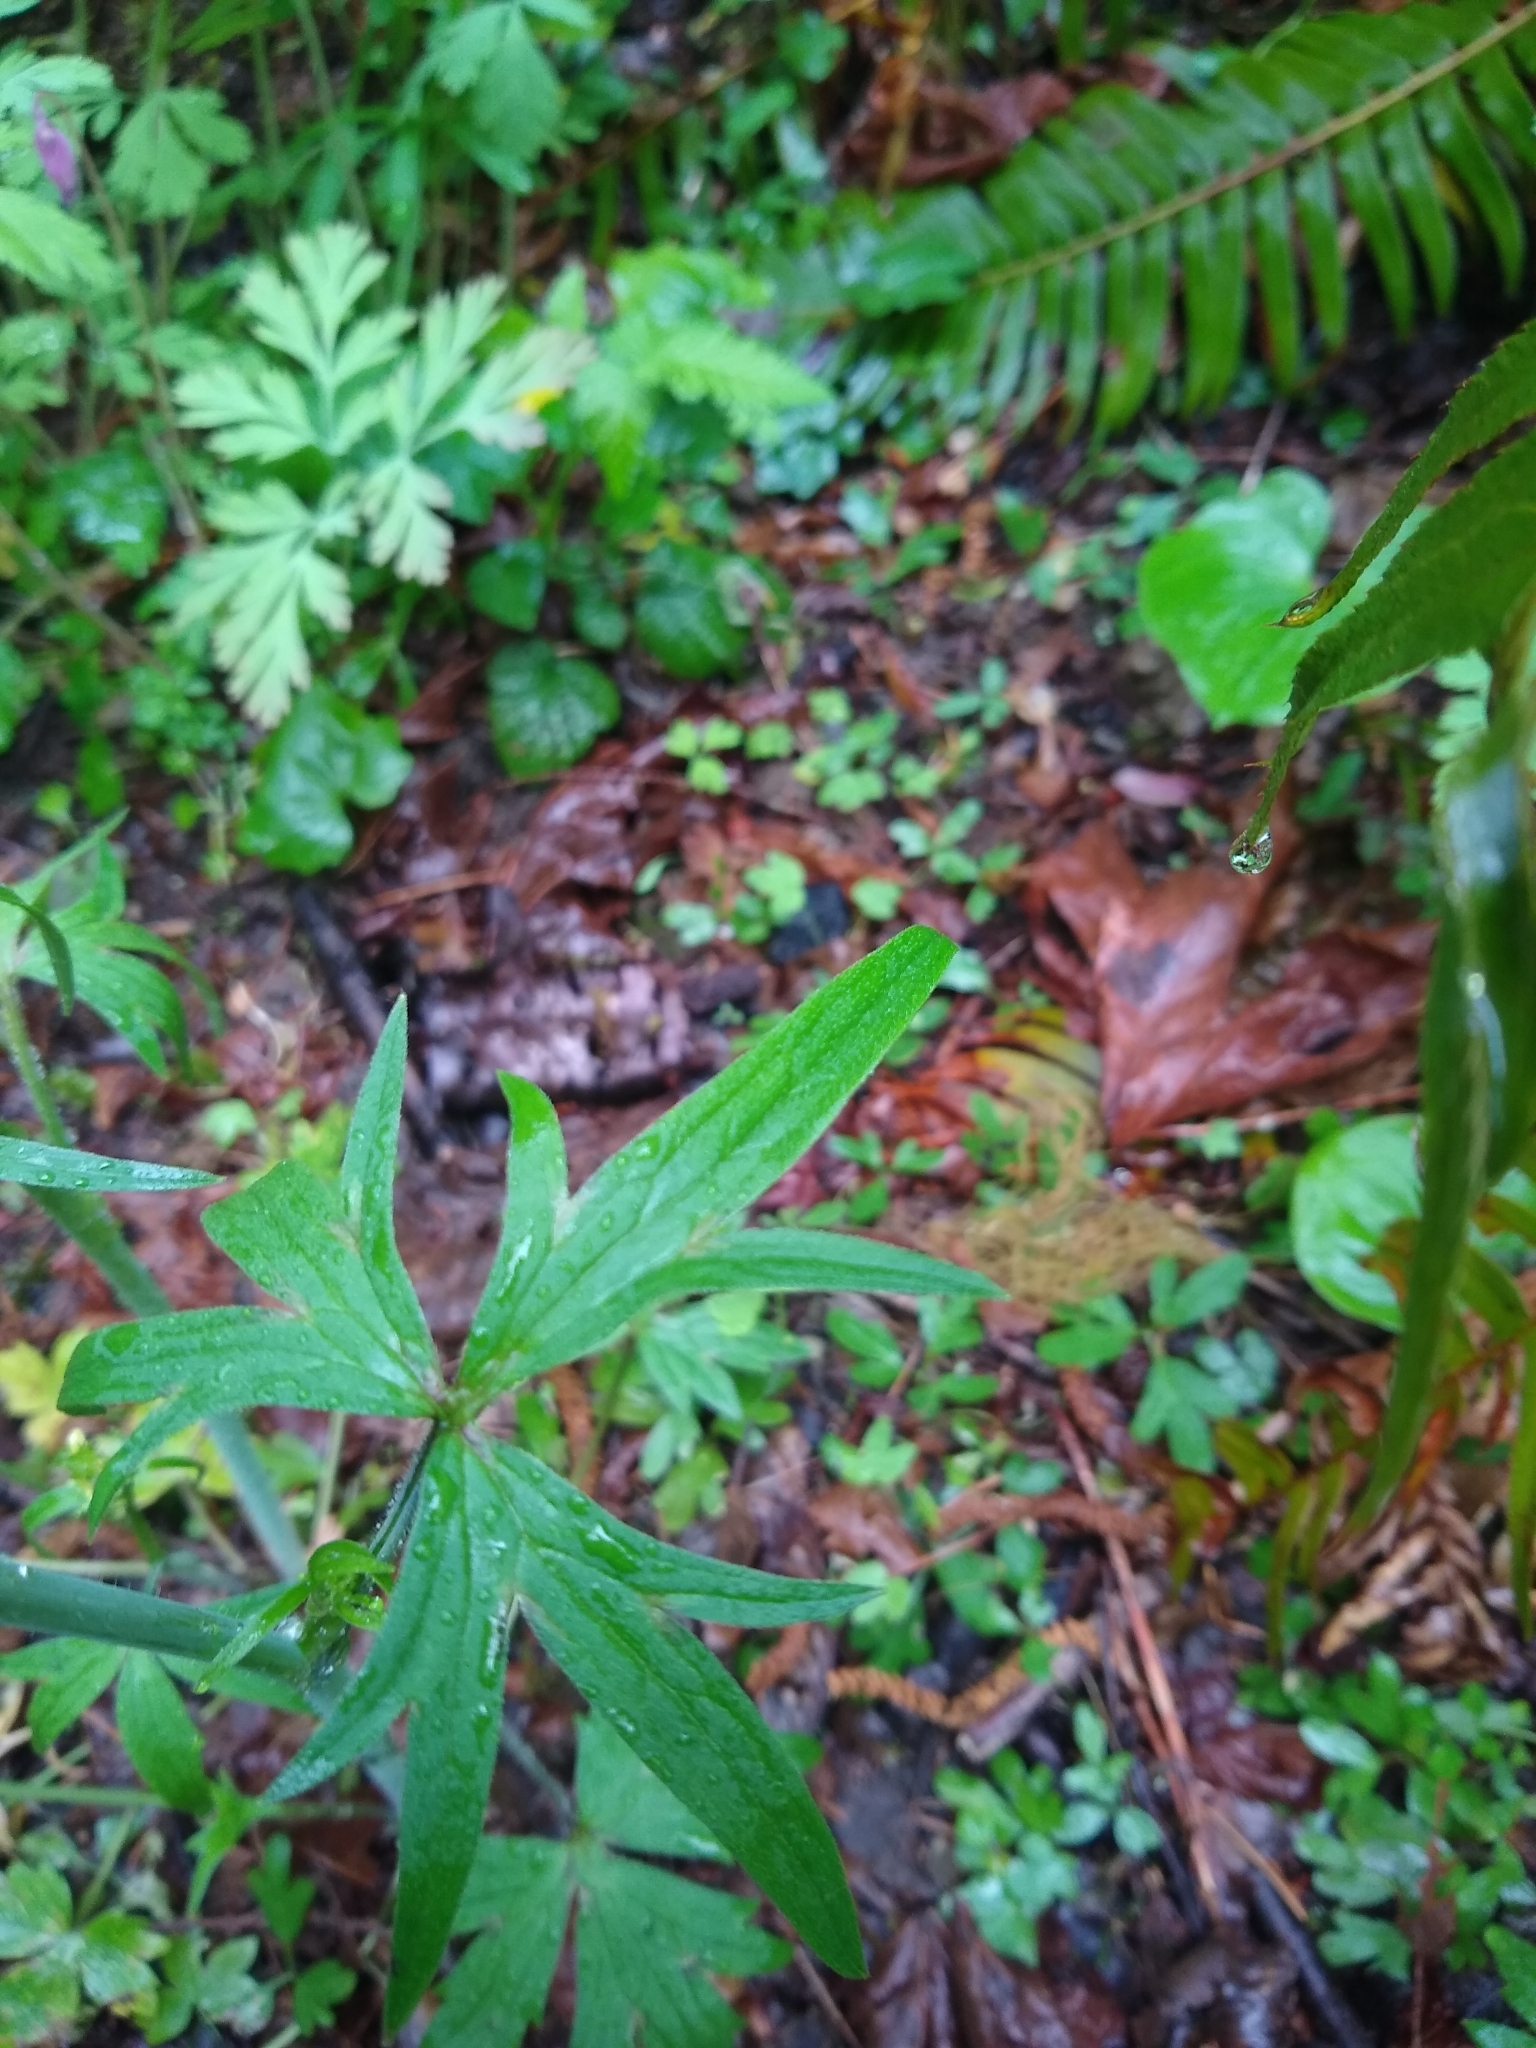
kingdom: Plantae
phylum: Tracheophyta
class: Magnoliopsida
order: Ranunculales
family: Ranunculaceae
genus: Ranunculus
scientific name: Ranunculus uncinatus
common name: Little buttercup
